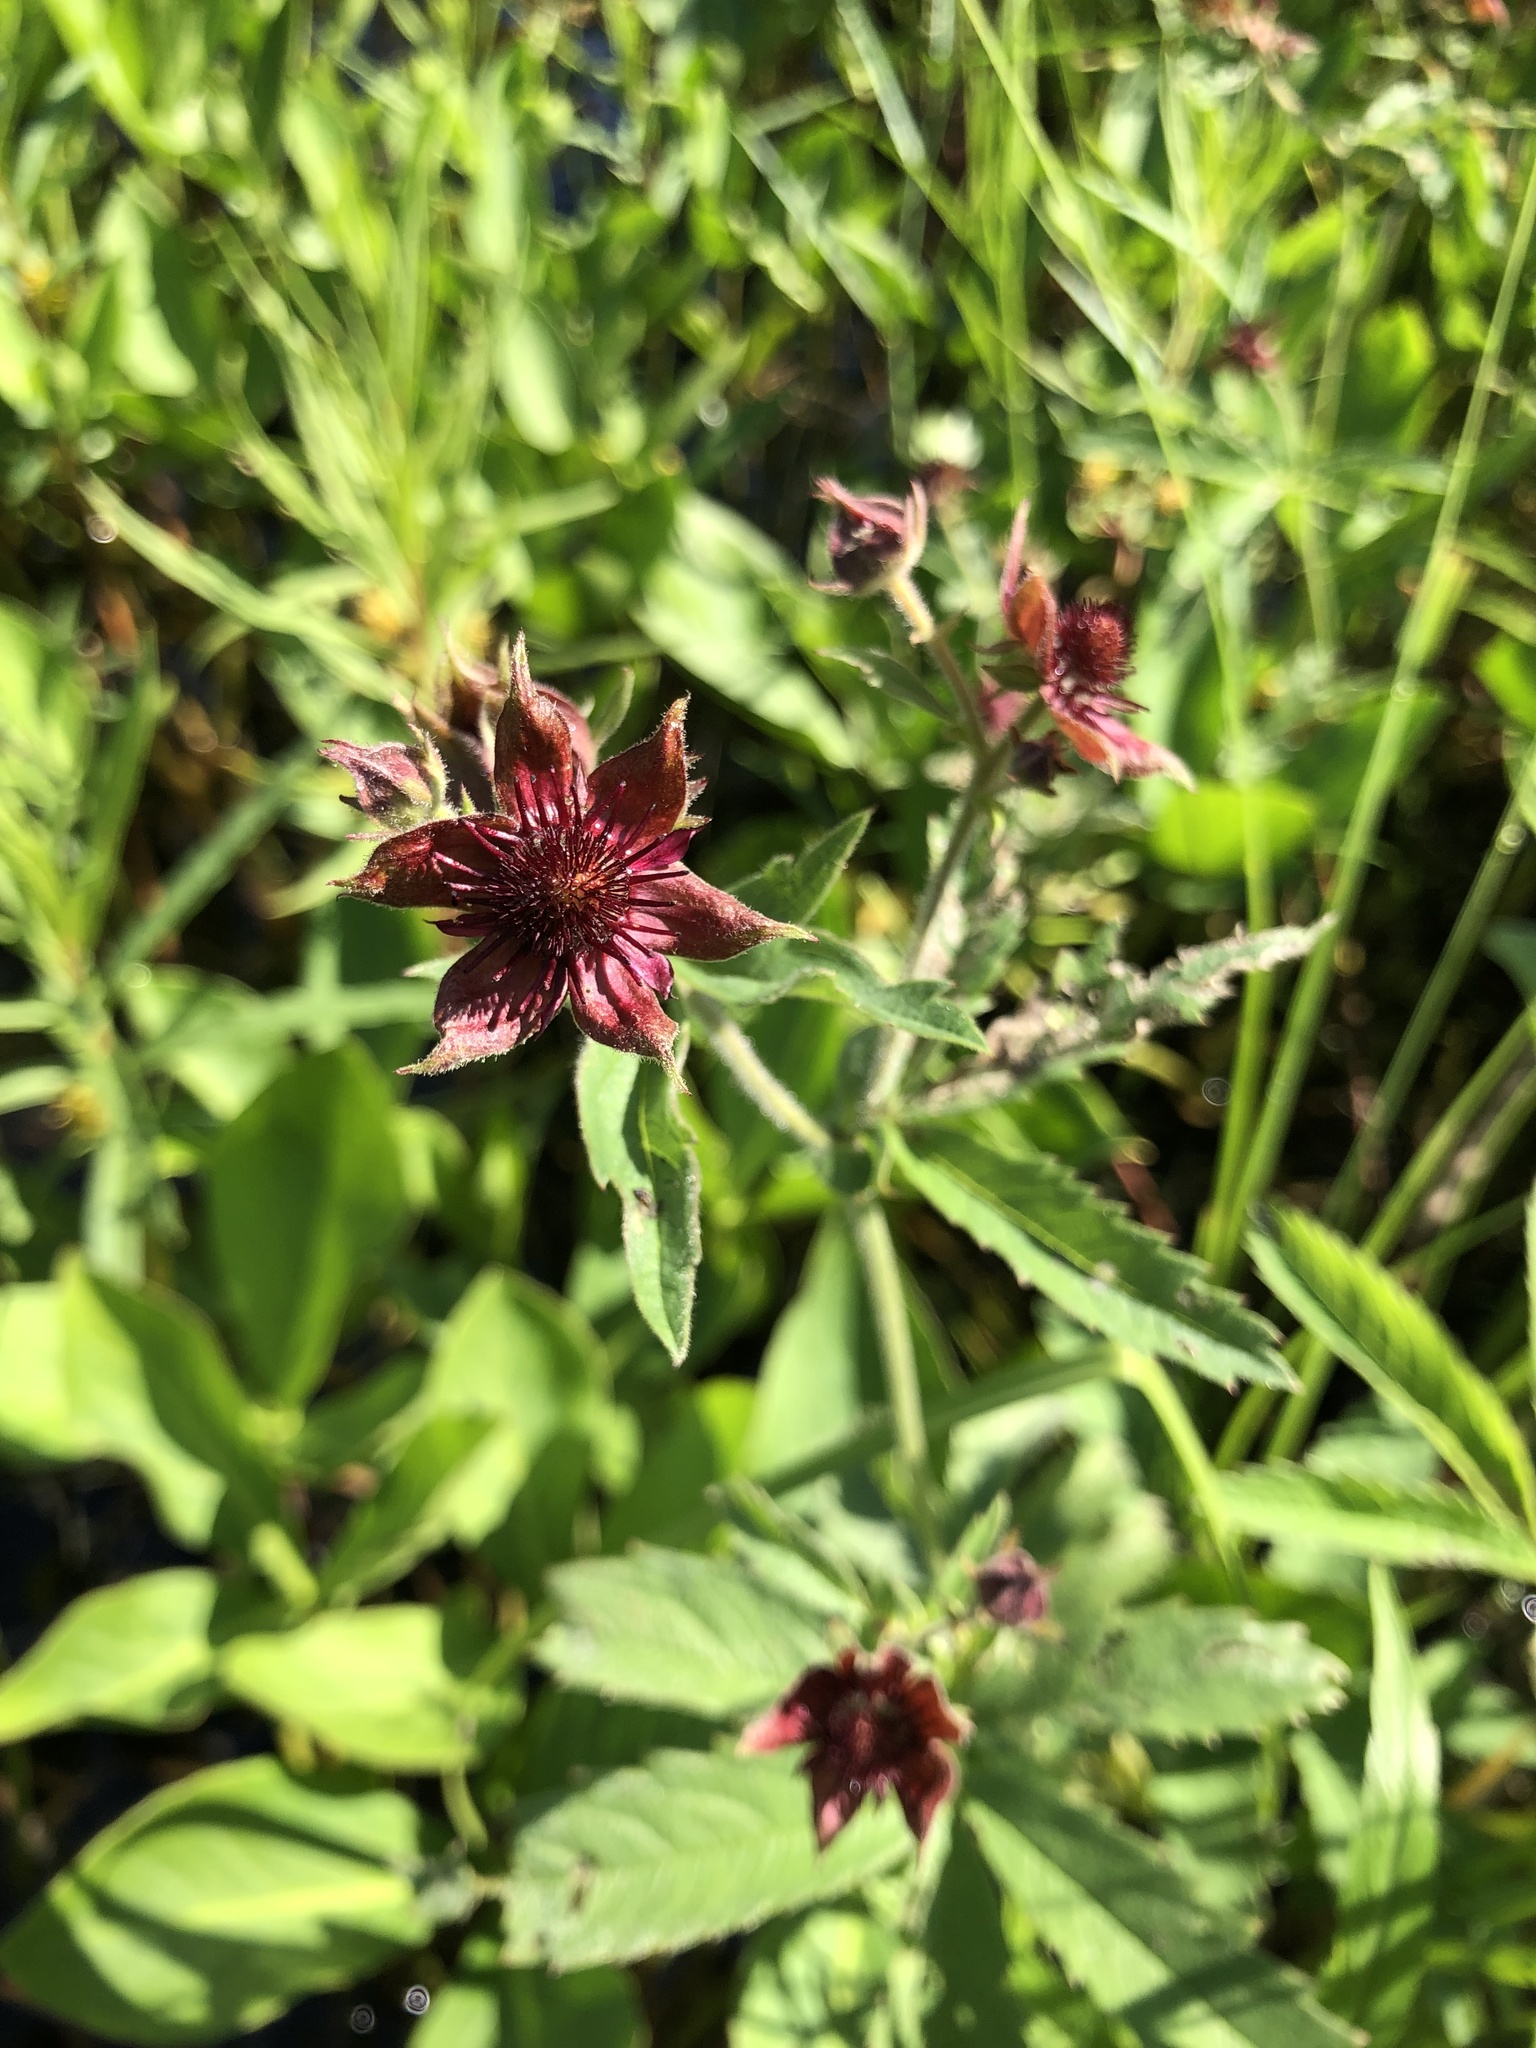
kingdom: Plantae
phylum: Tracheophyta
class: Magnoliopsida
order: Rosales
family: Rosaceae
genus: Comarum
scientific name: Comarum palustre
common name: Marsh cinquefoil
